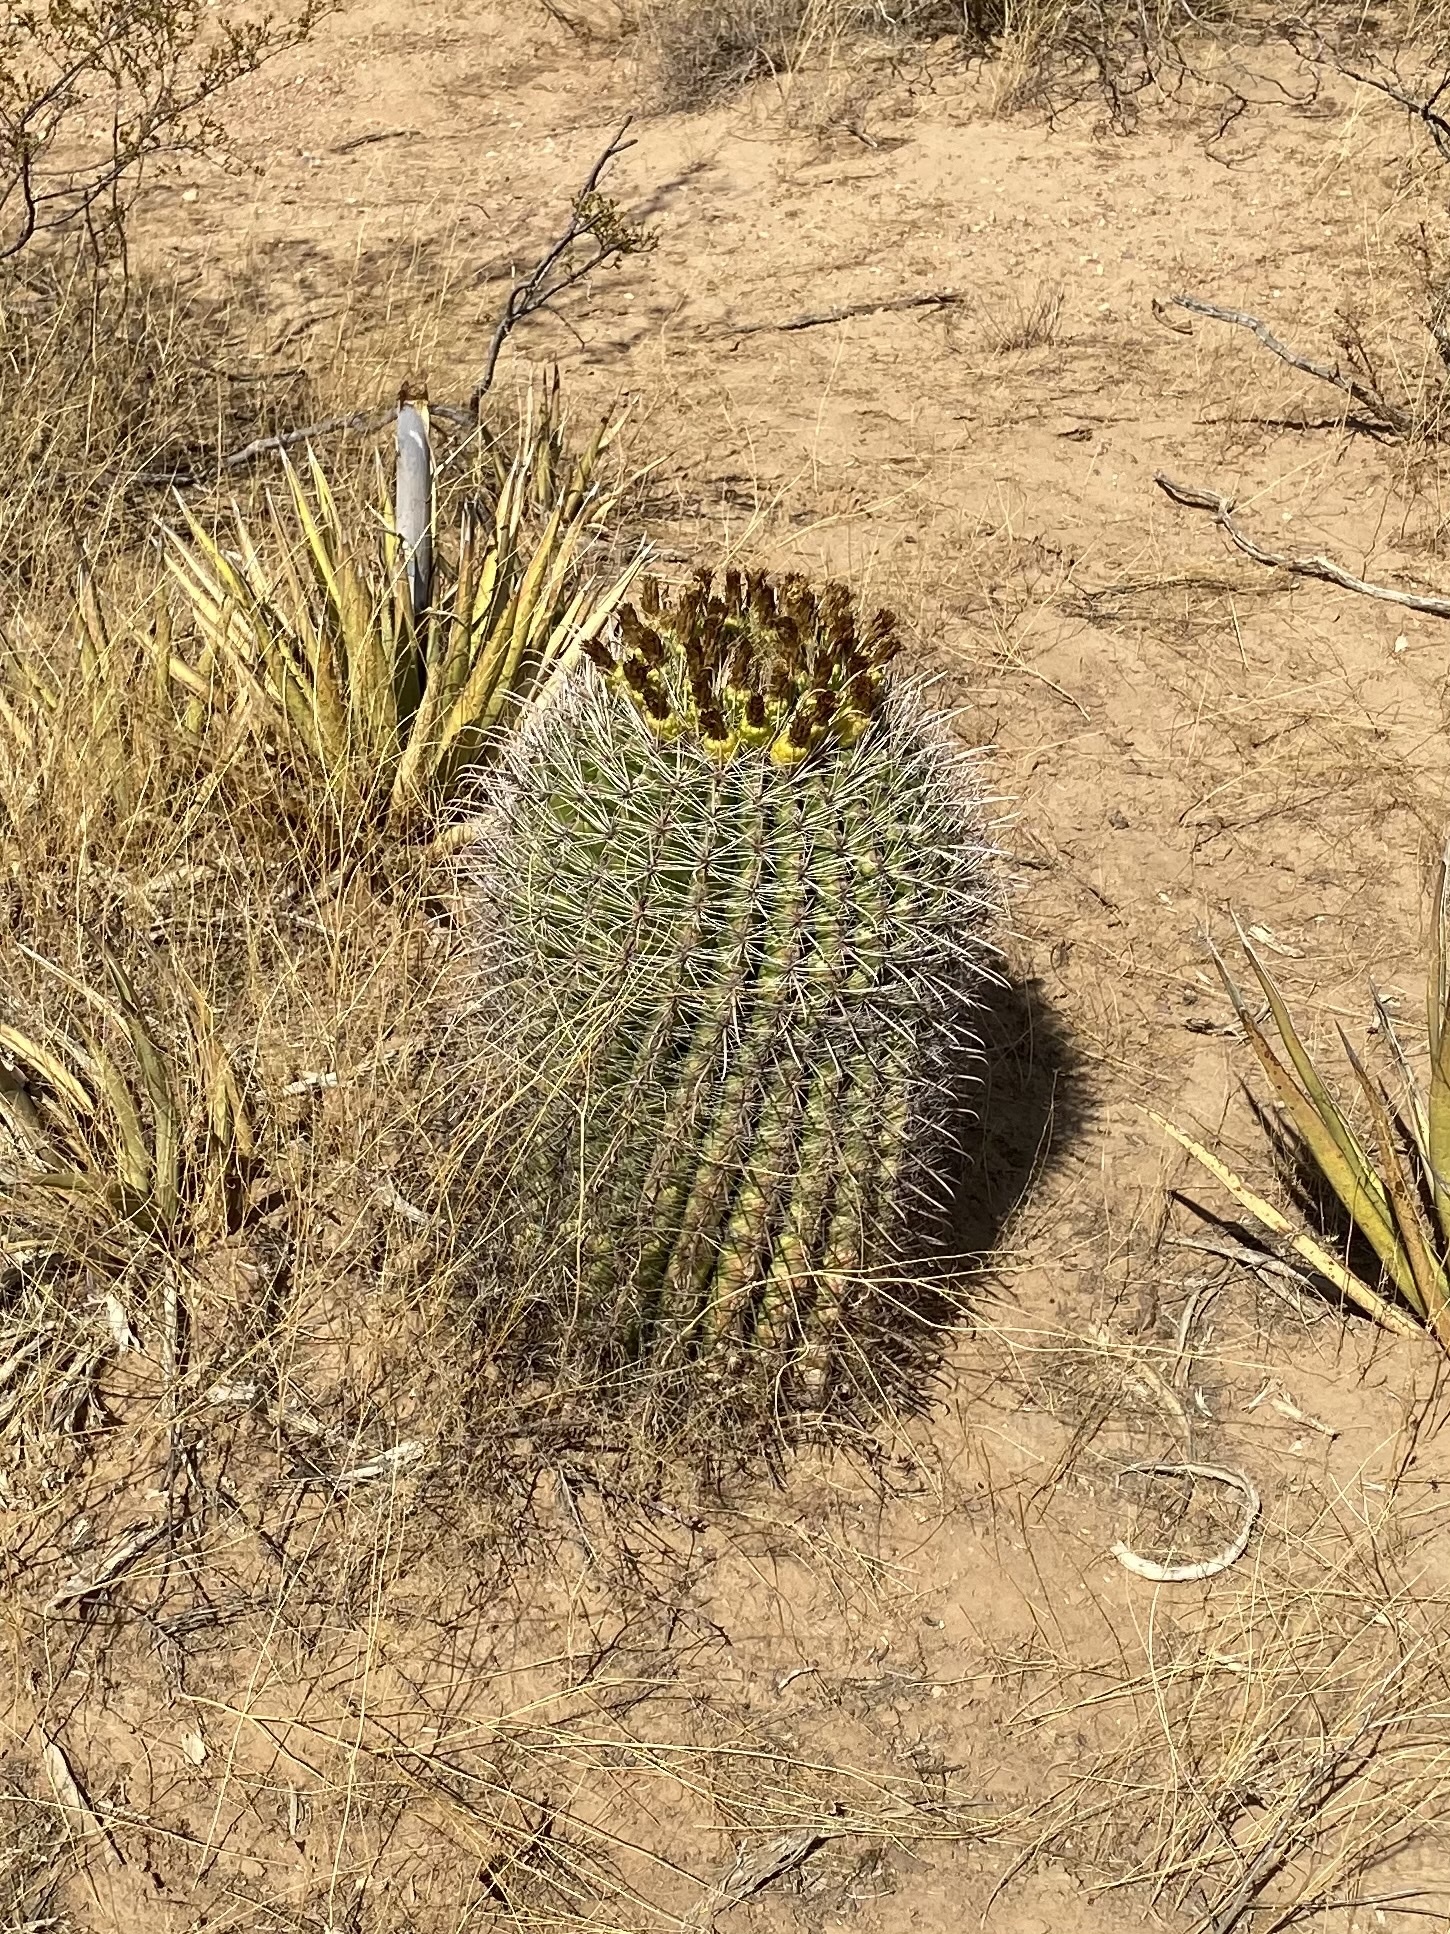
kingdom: Plantae
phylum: Tracheophyta
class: Magnoliopsida
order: Caryophyllales
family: Cactaceae
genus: Ferocactus
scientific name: Ferocactus wislizeni
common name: Candy barrel cactus
